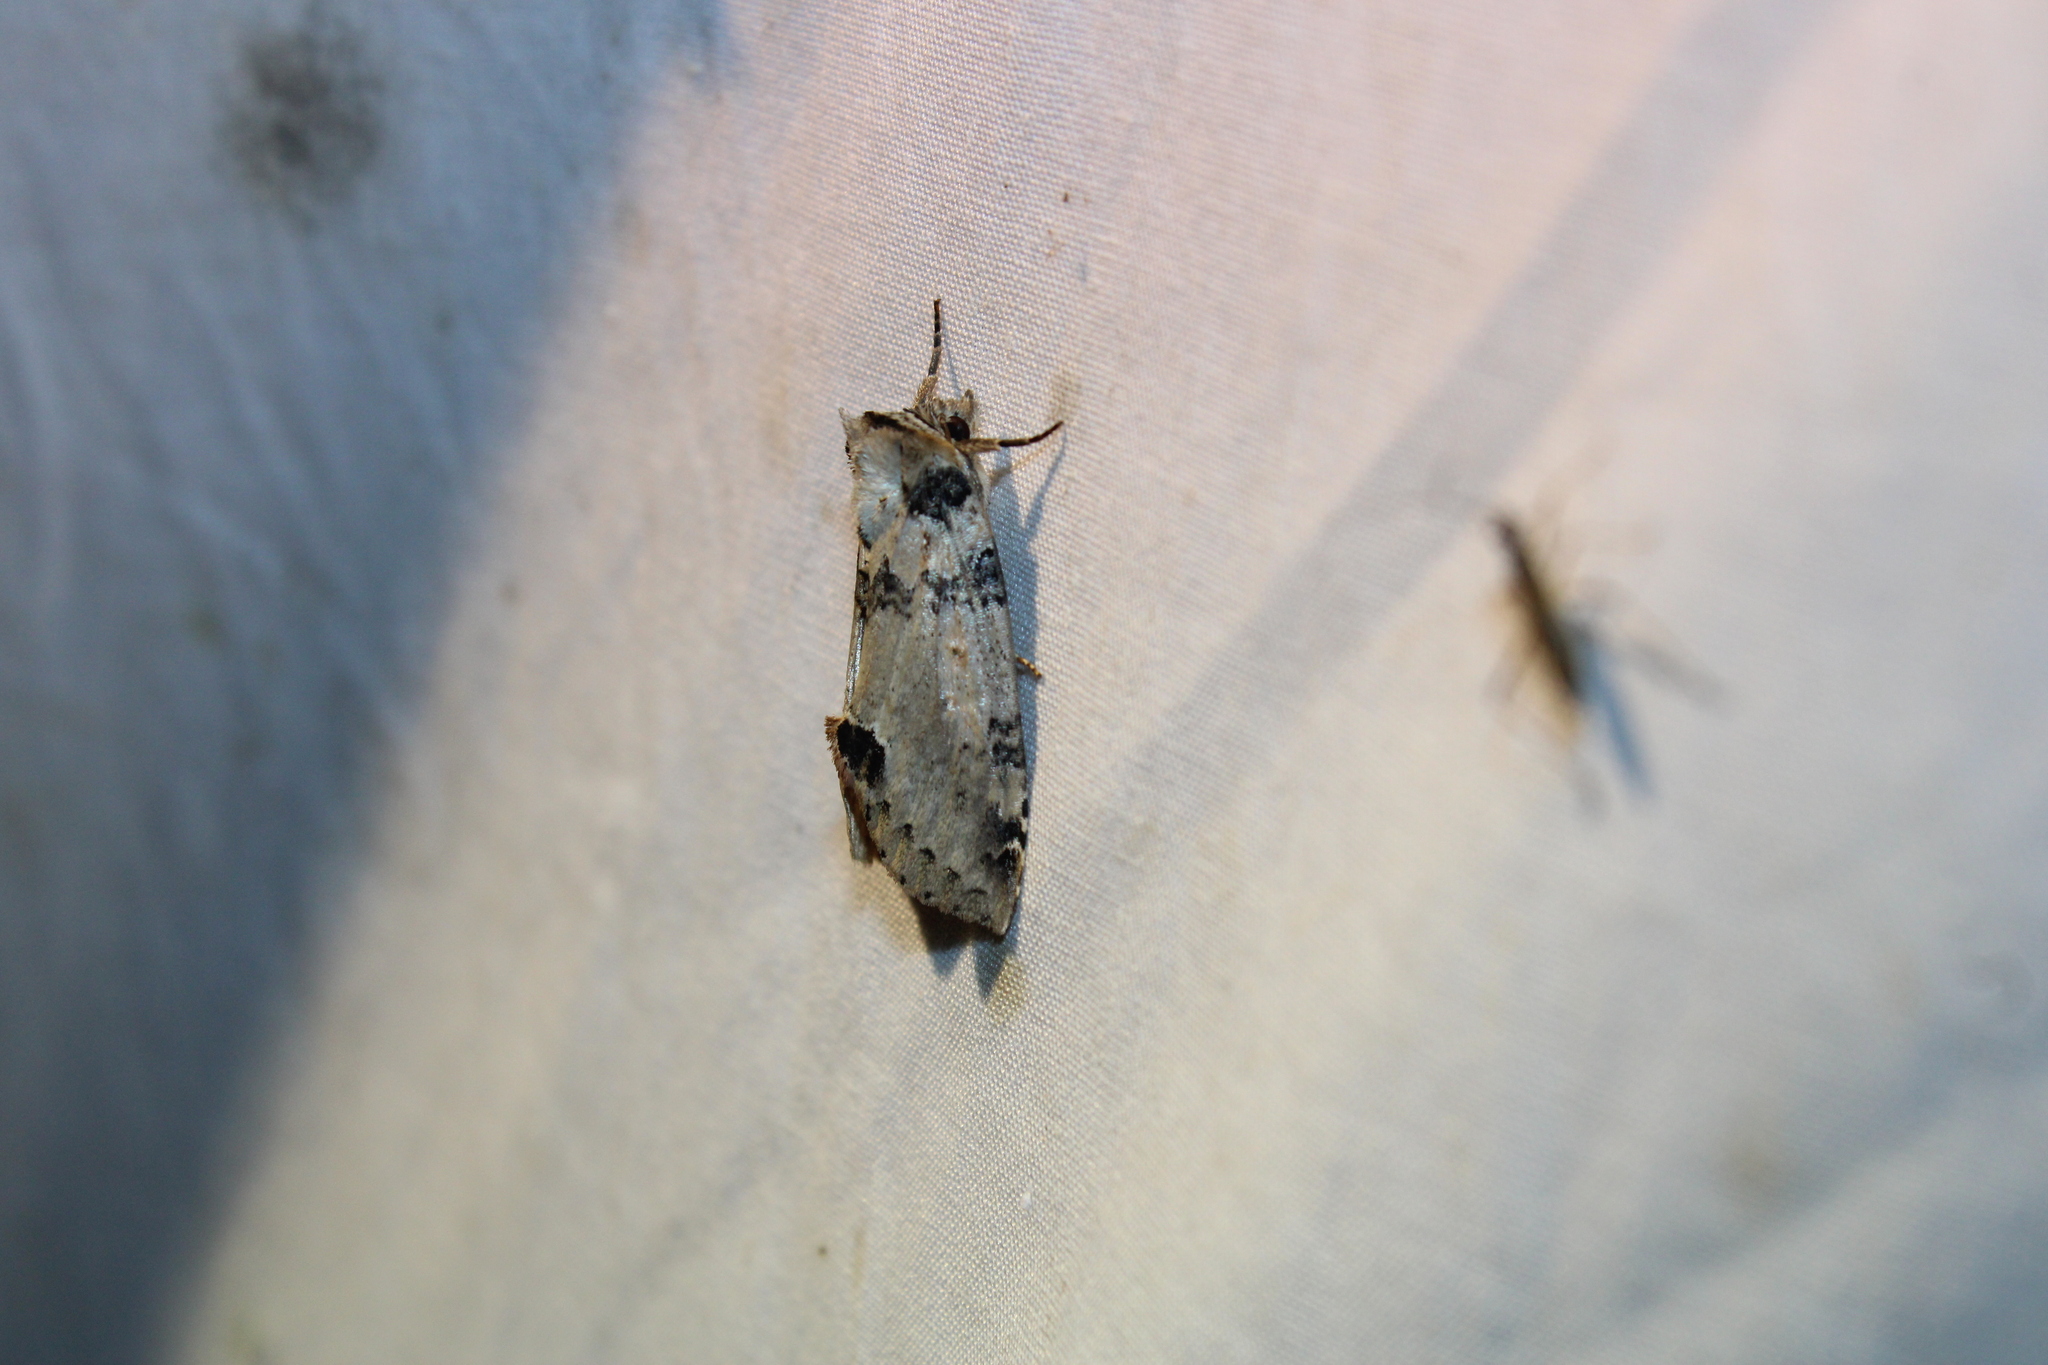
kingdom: Animalia
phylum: Arthropoda
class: Insecta
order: Lepidoptera
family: Drepanidae
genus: Pseudothyatira
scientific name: Pseudothyatira cymatophoroides
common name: Tufted thyatirid moth
